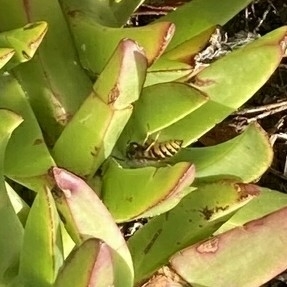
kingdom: Animalia
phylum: Arthropoda
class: Insecta
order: Hymenoptera
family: Vespidae
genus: Vespula
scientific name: Vespula vulgaris
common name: Common wasp
